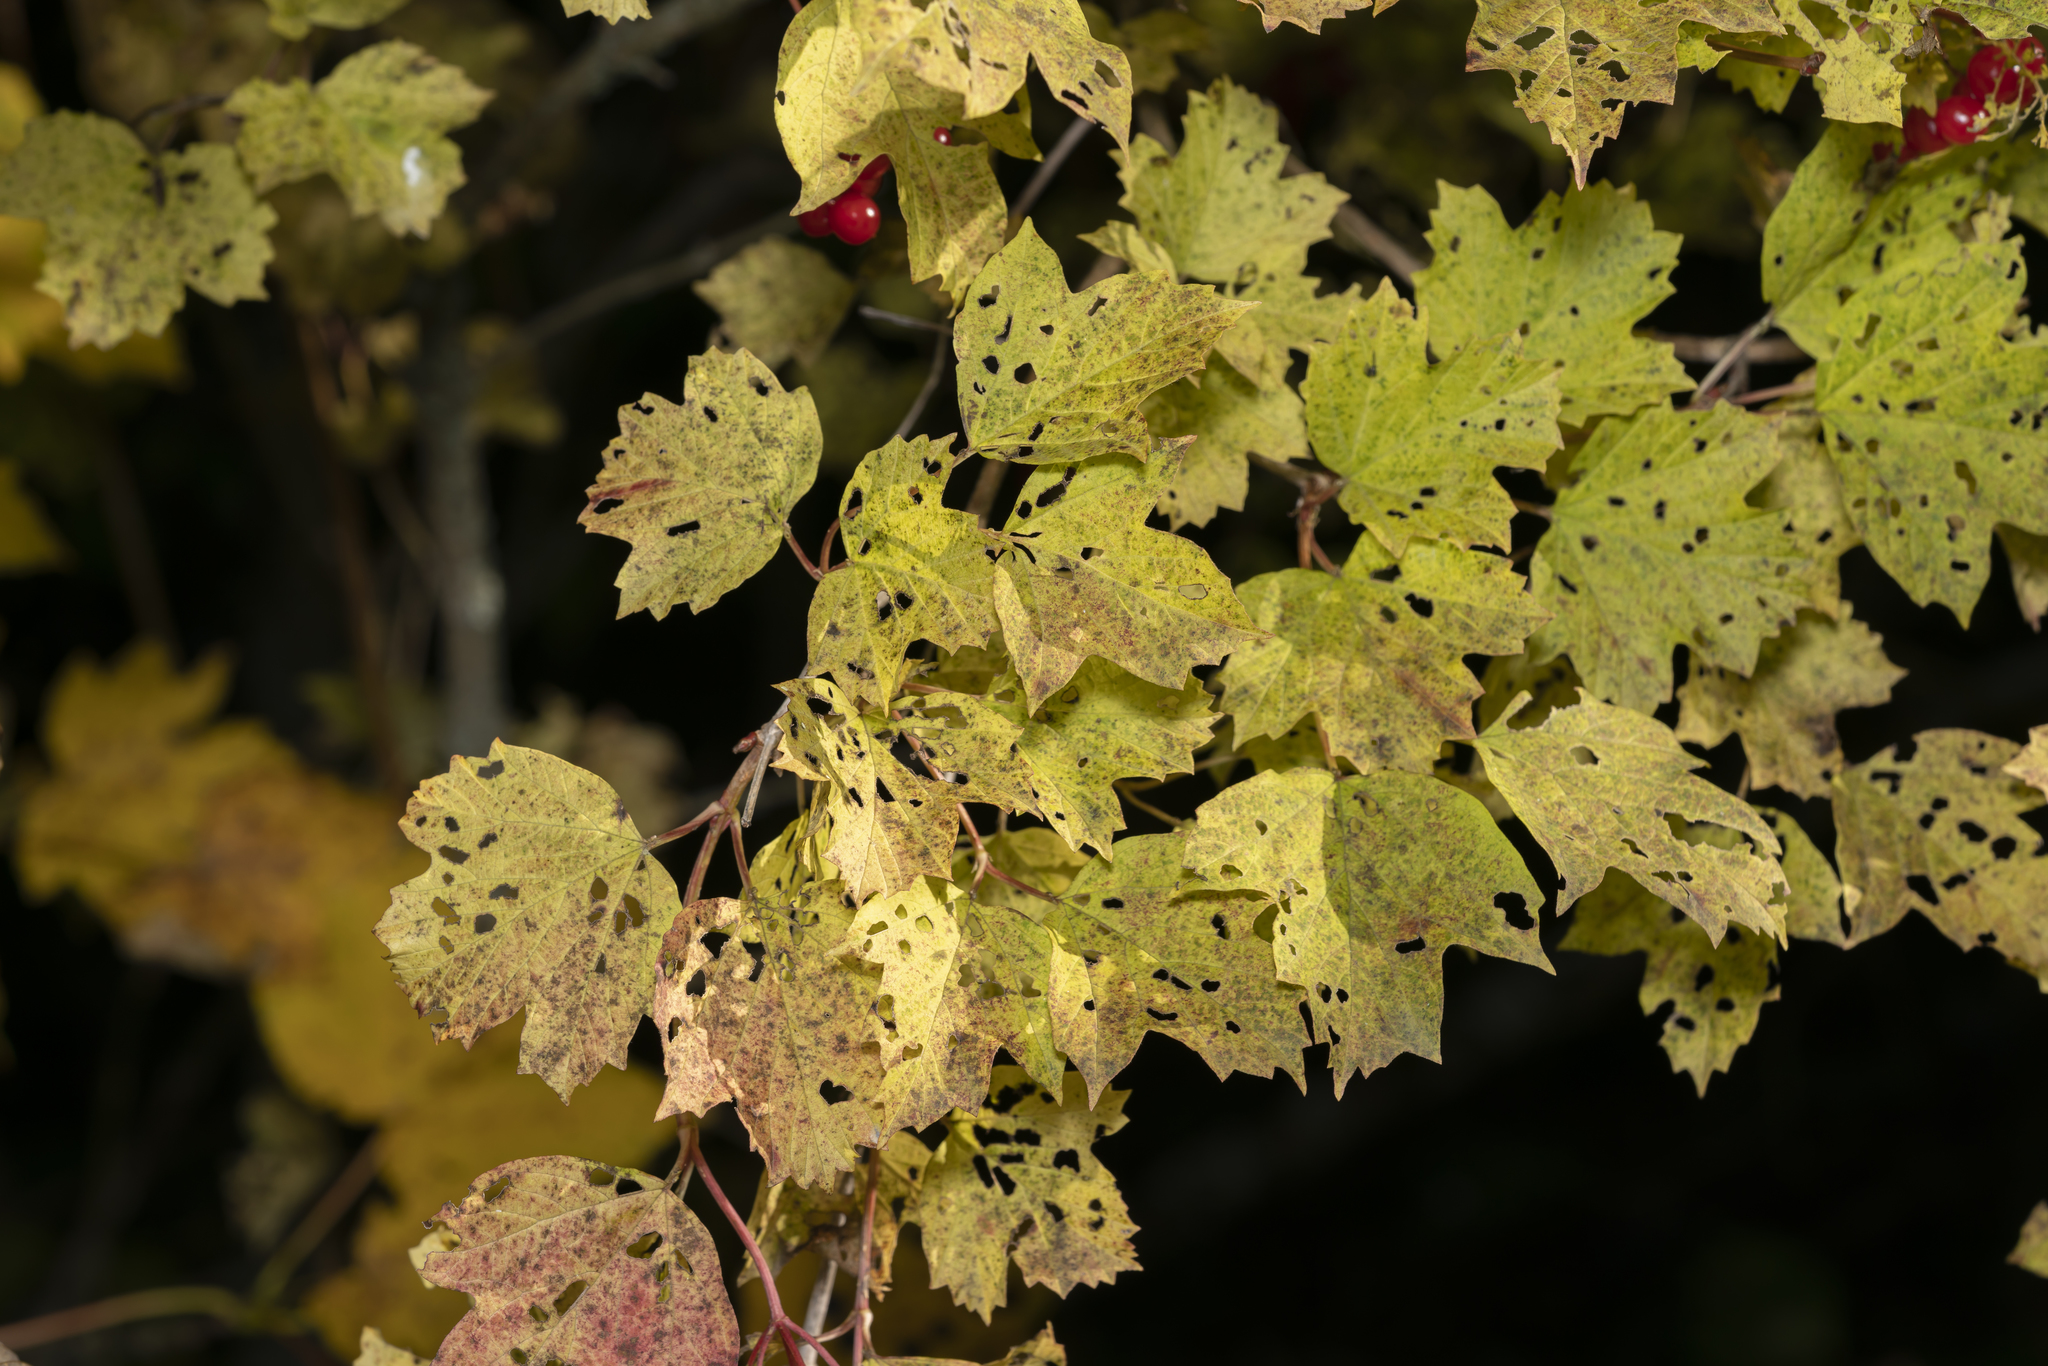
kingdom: Plantae
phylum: Tracheophyta
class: Magnoliopsida
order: Dipsacales
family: Viburnaceae
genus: Viburnum
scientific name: Viburnum opulus
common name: Guelder-rose
